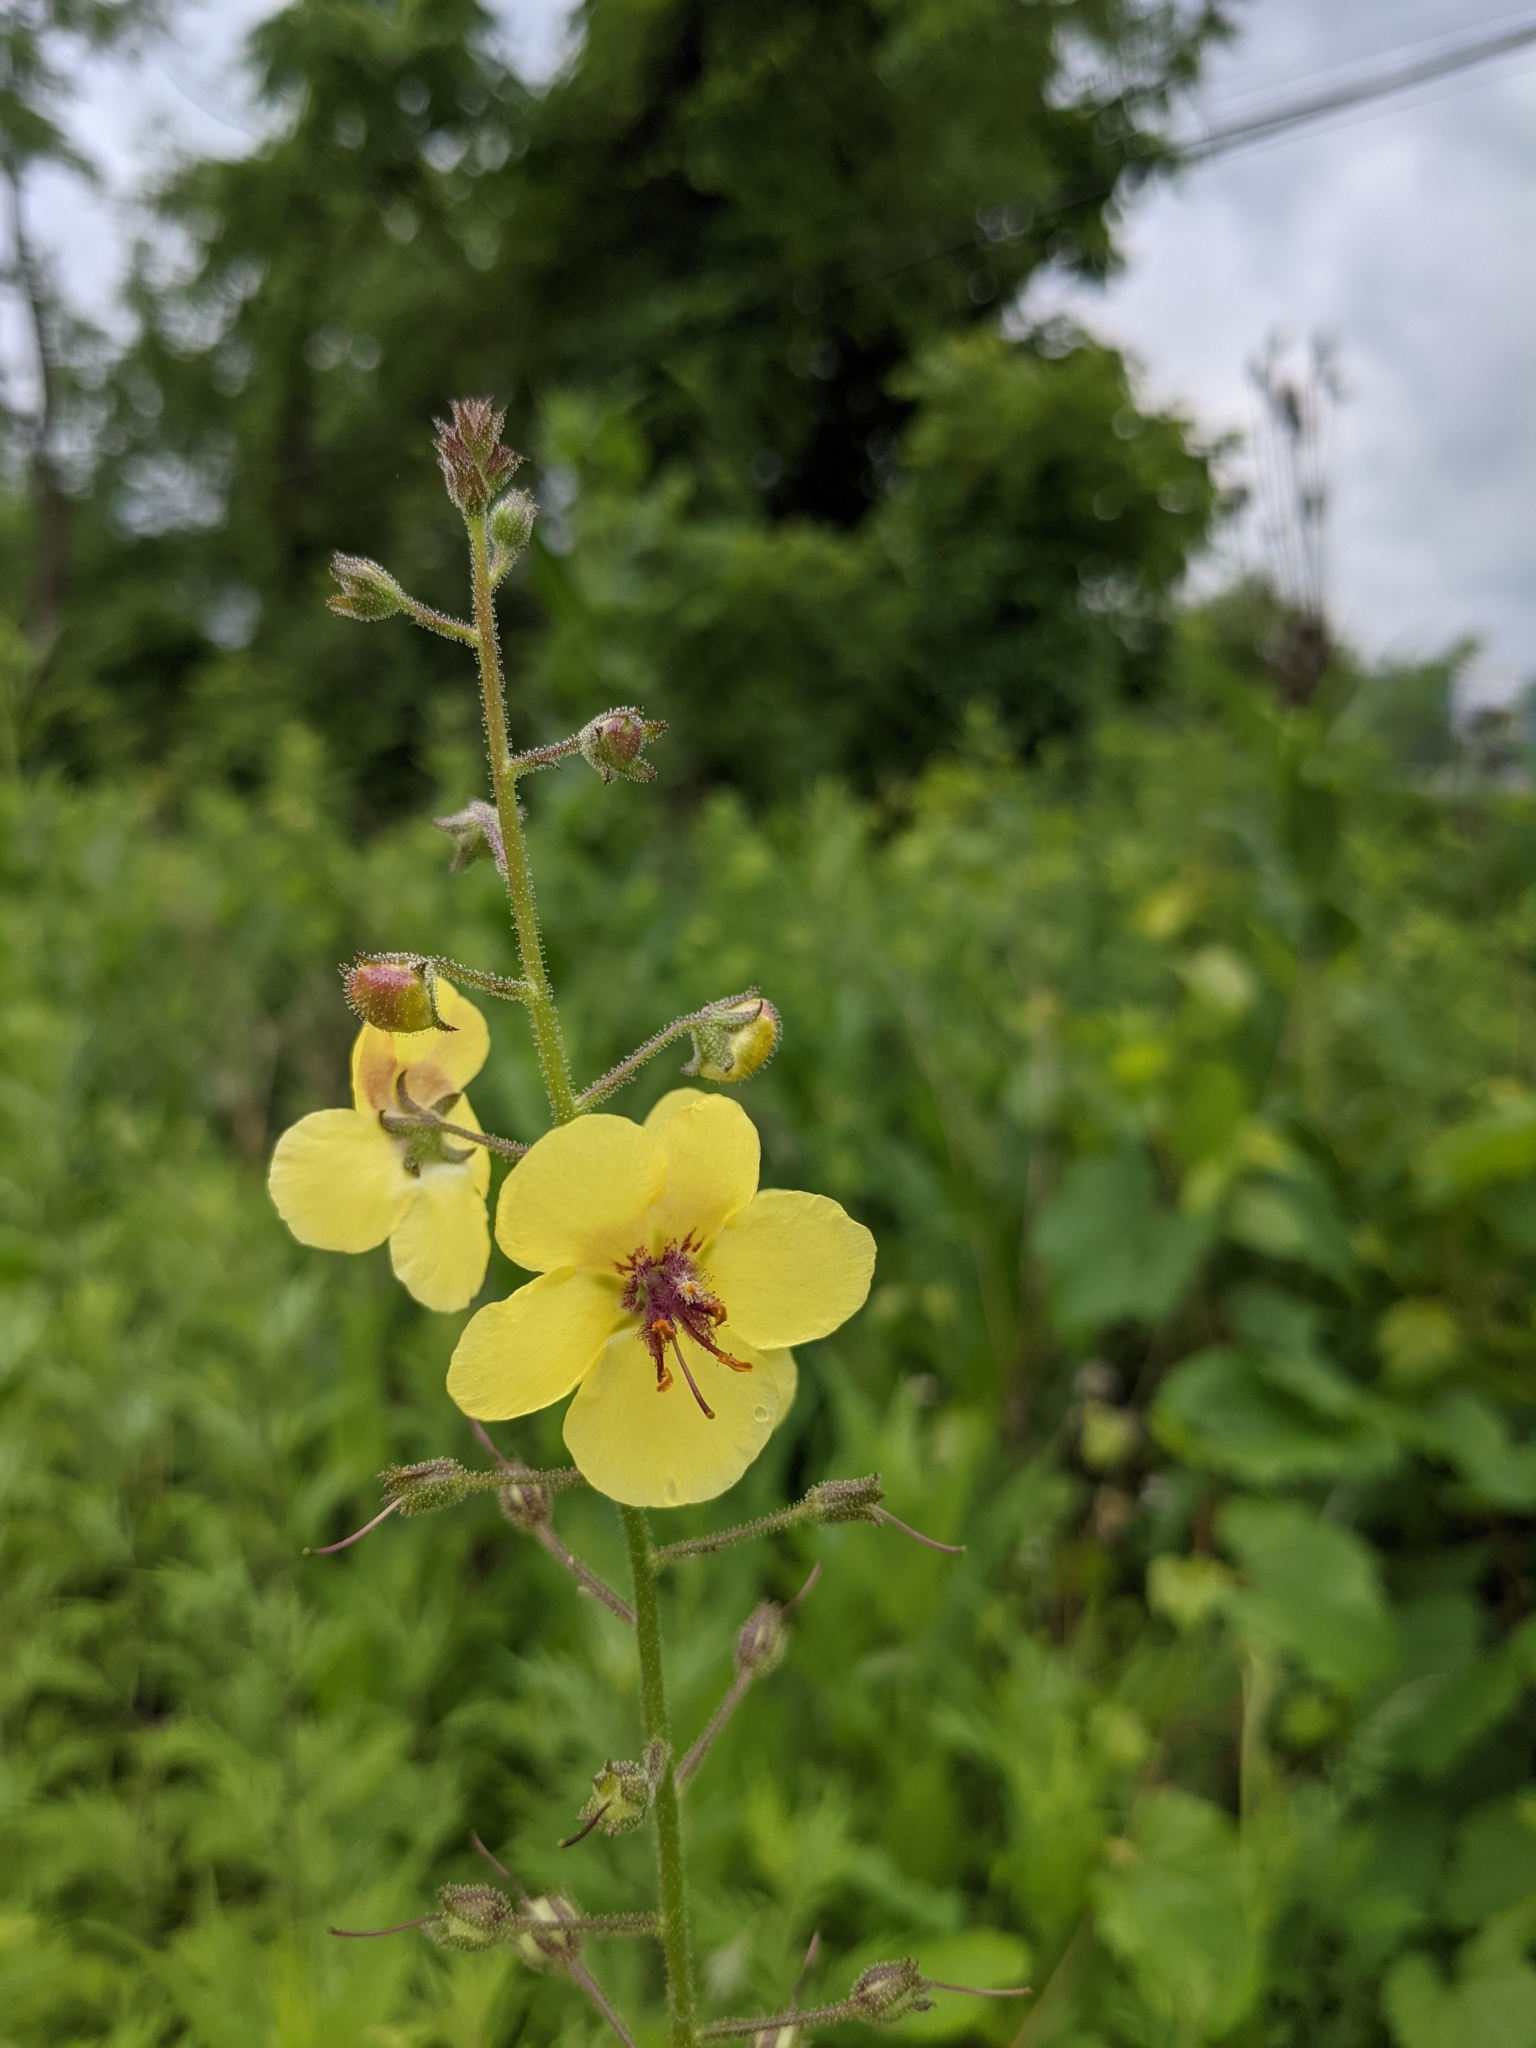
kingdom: Plantae
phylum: Tracheophyta
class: Magnoliopsida
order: Lamiales
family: Scrophulariaceae
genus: Verbascum
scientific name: Verbascum blattaria
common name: Moth mullein
